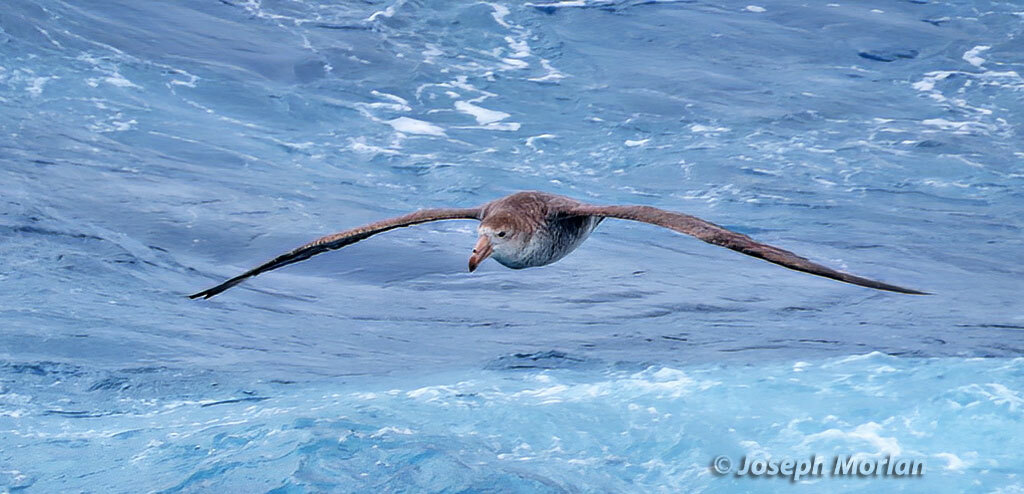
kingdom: Animalia
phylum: Chordata
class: Aves
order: Procellariiformes
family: Procellariidae
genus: Macronectes
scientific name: Macronectes halli
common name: Northern giant petrel
